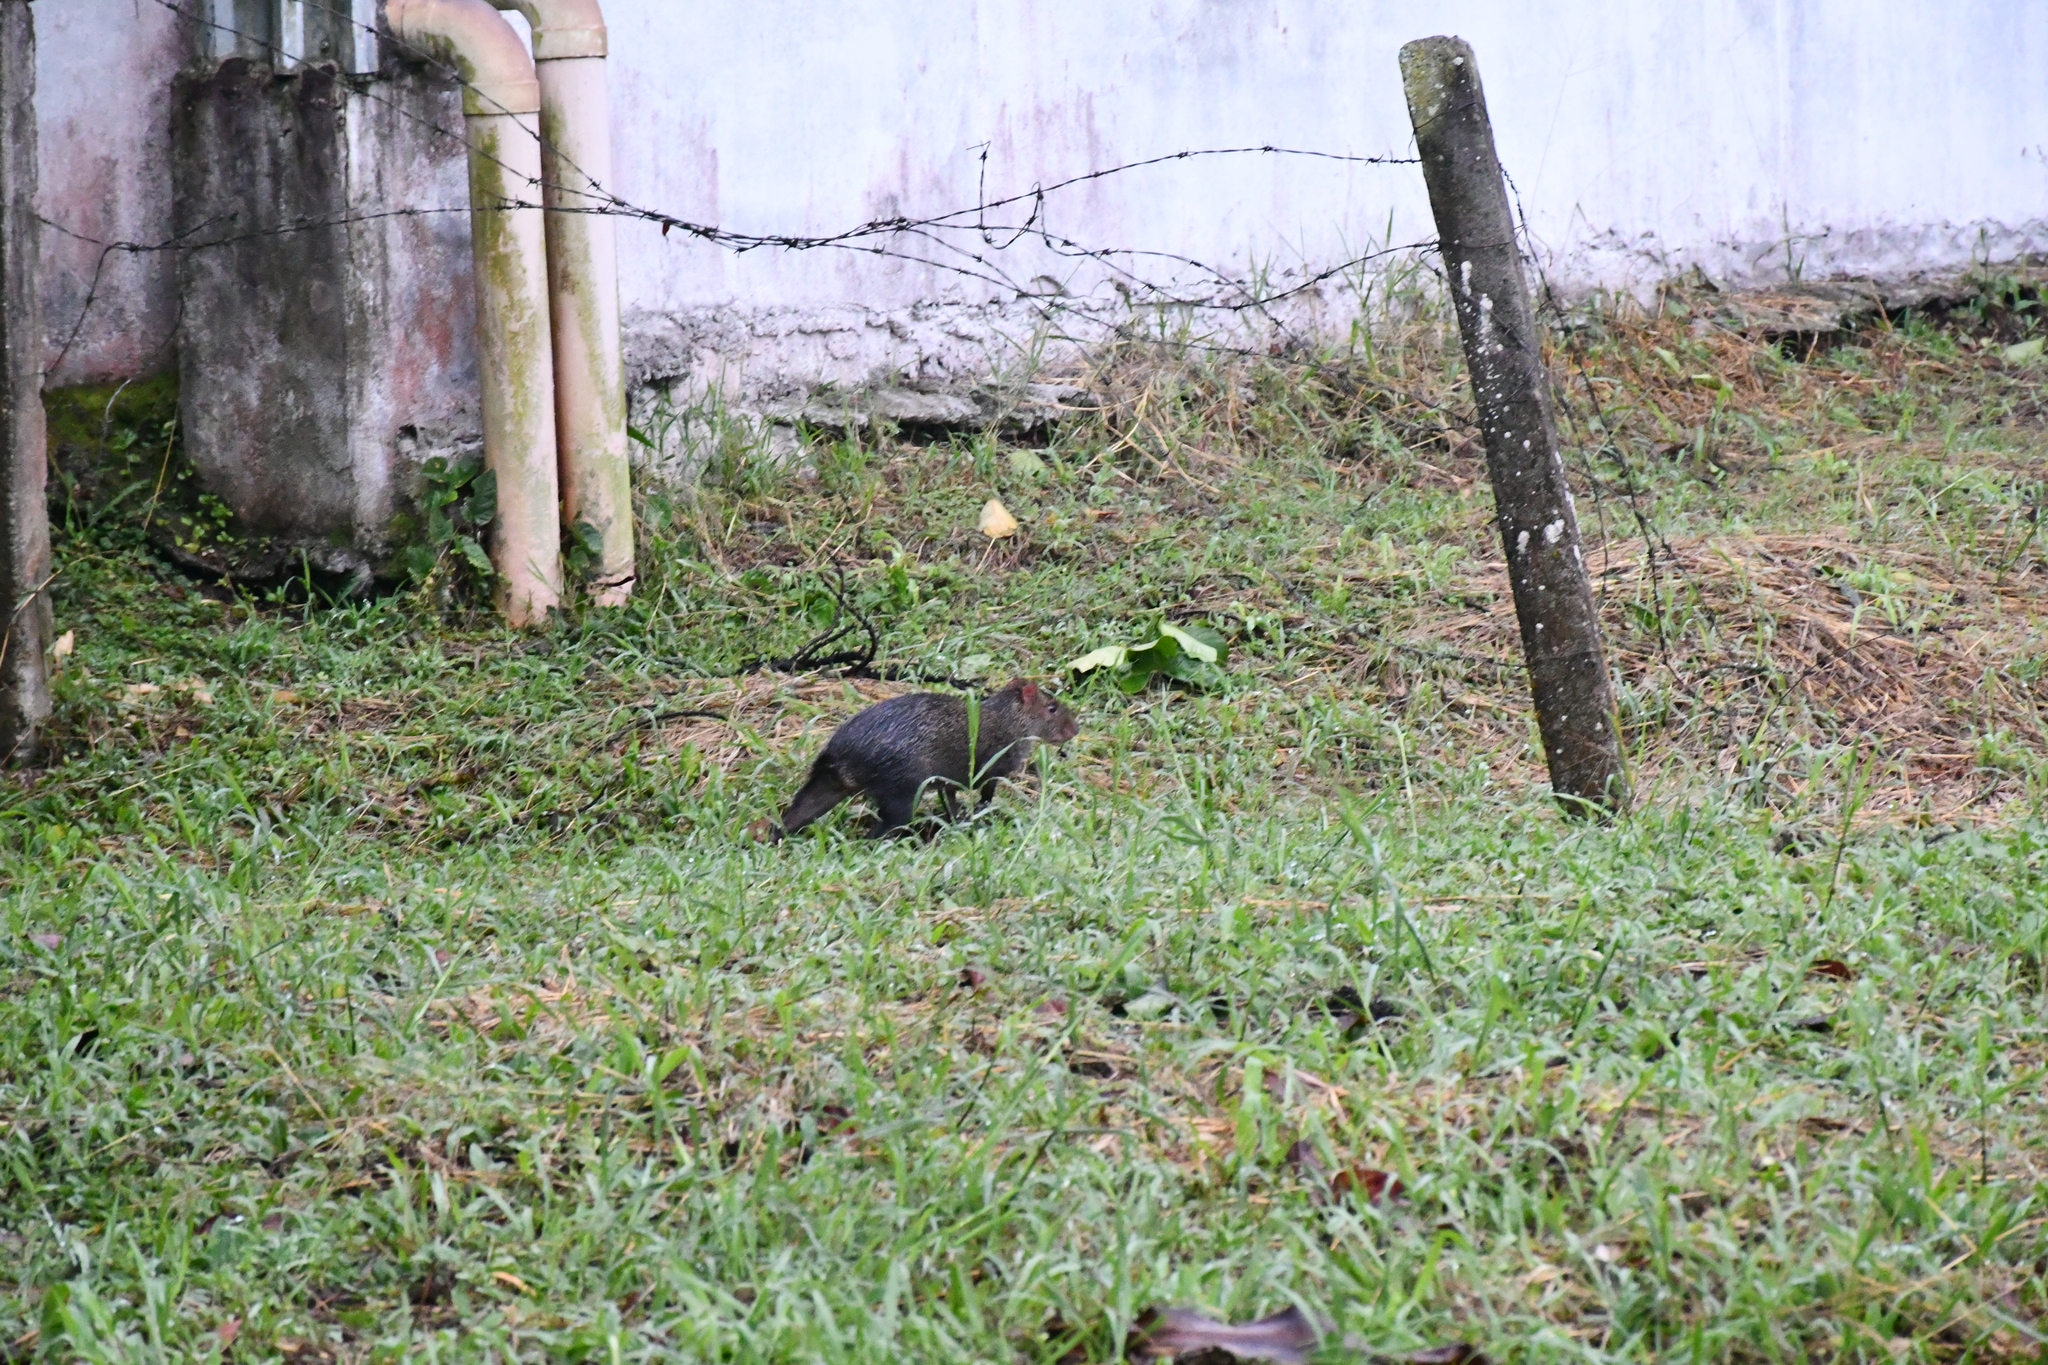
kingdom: Animalia
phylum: Chordata
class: Mammalia
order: Rodentia
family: Dasyproctidae
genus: Dasyprocta
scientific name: Dasyprocta punctata
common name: Central american agouti
